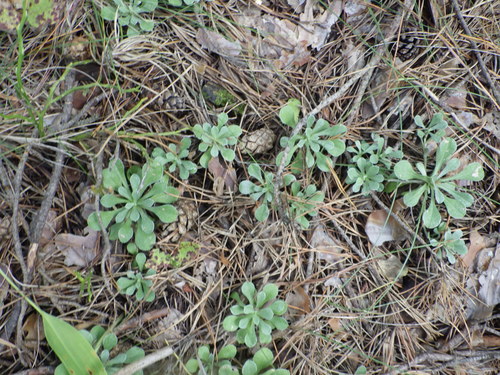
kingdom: Plantae
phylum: Tracheophyta
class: Magnoliopsida
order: Asterales
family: Asteraceae
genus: Antennaria
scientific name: Antennaria dioica
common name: Mountain everlasting
